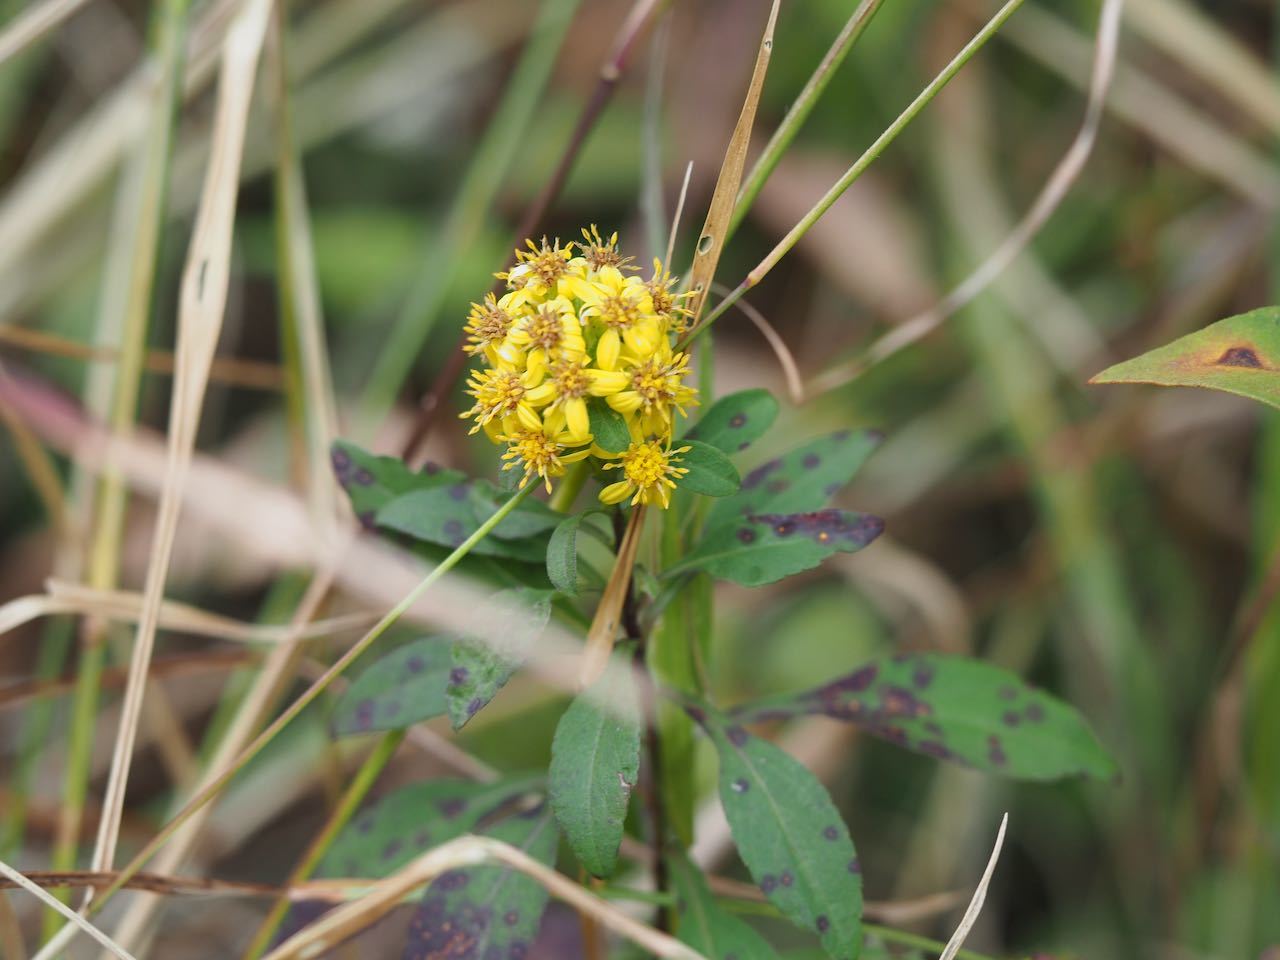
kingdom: Plantae
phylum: Tracheophyta
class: Magnoliopsida
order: Asterales
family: Asteraceae
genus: Solidago
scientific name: Solidago virgaurea
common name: Goldenrod
